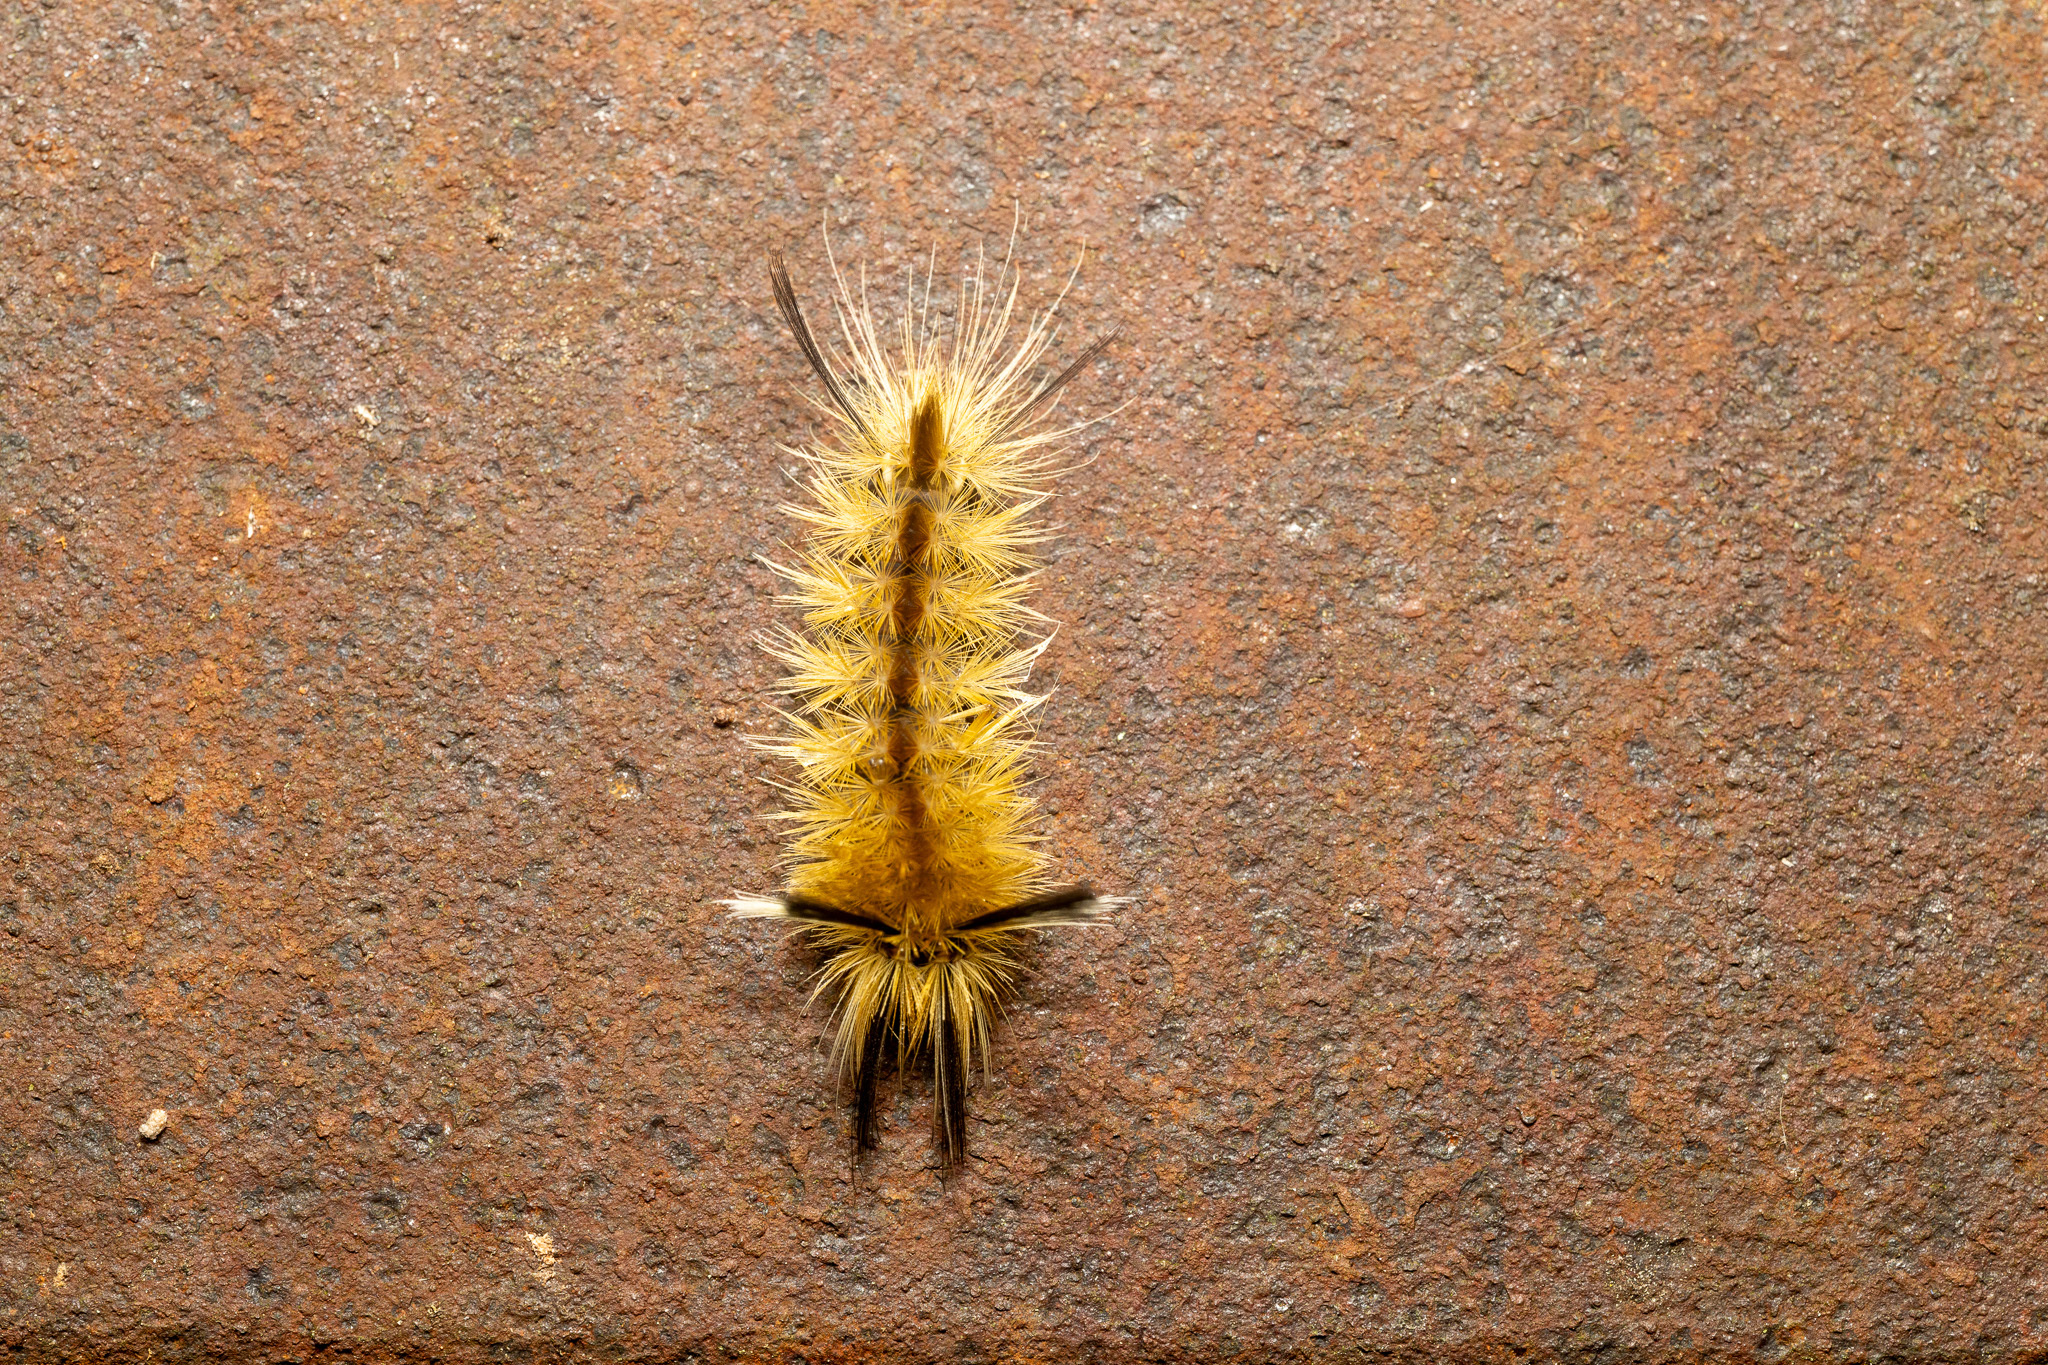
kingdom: Animalia
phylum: Arthropoda
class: Insecta
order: Lepidoptera
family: Erebidae
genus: Halysidota
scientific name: Halysidota tessellaris
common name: Banded tussock moth
